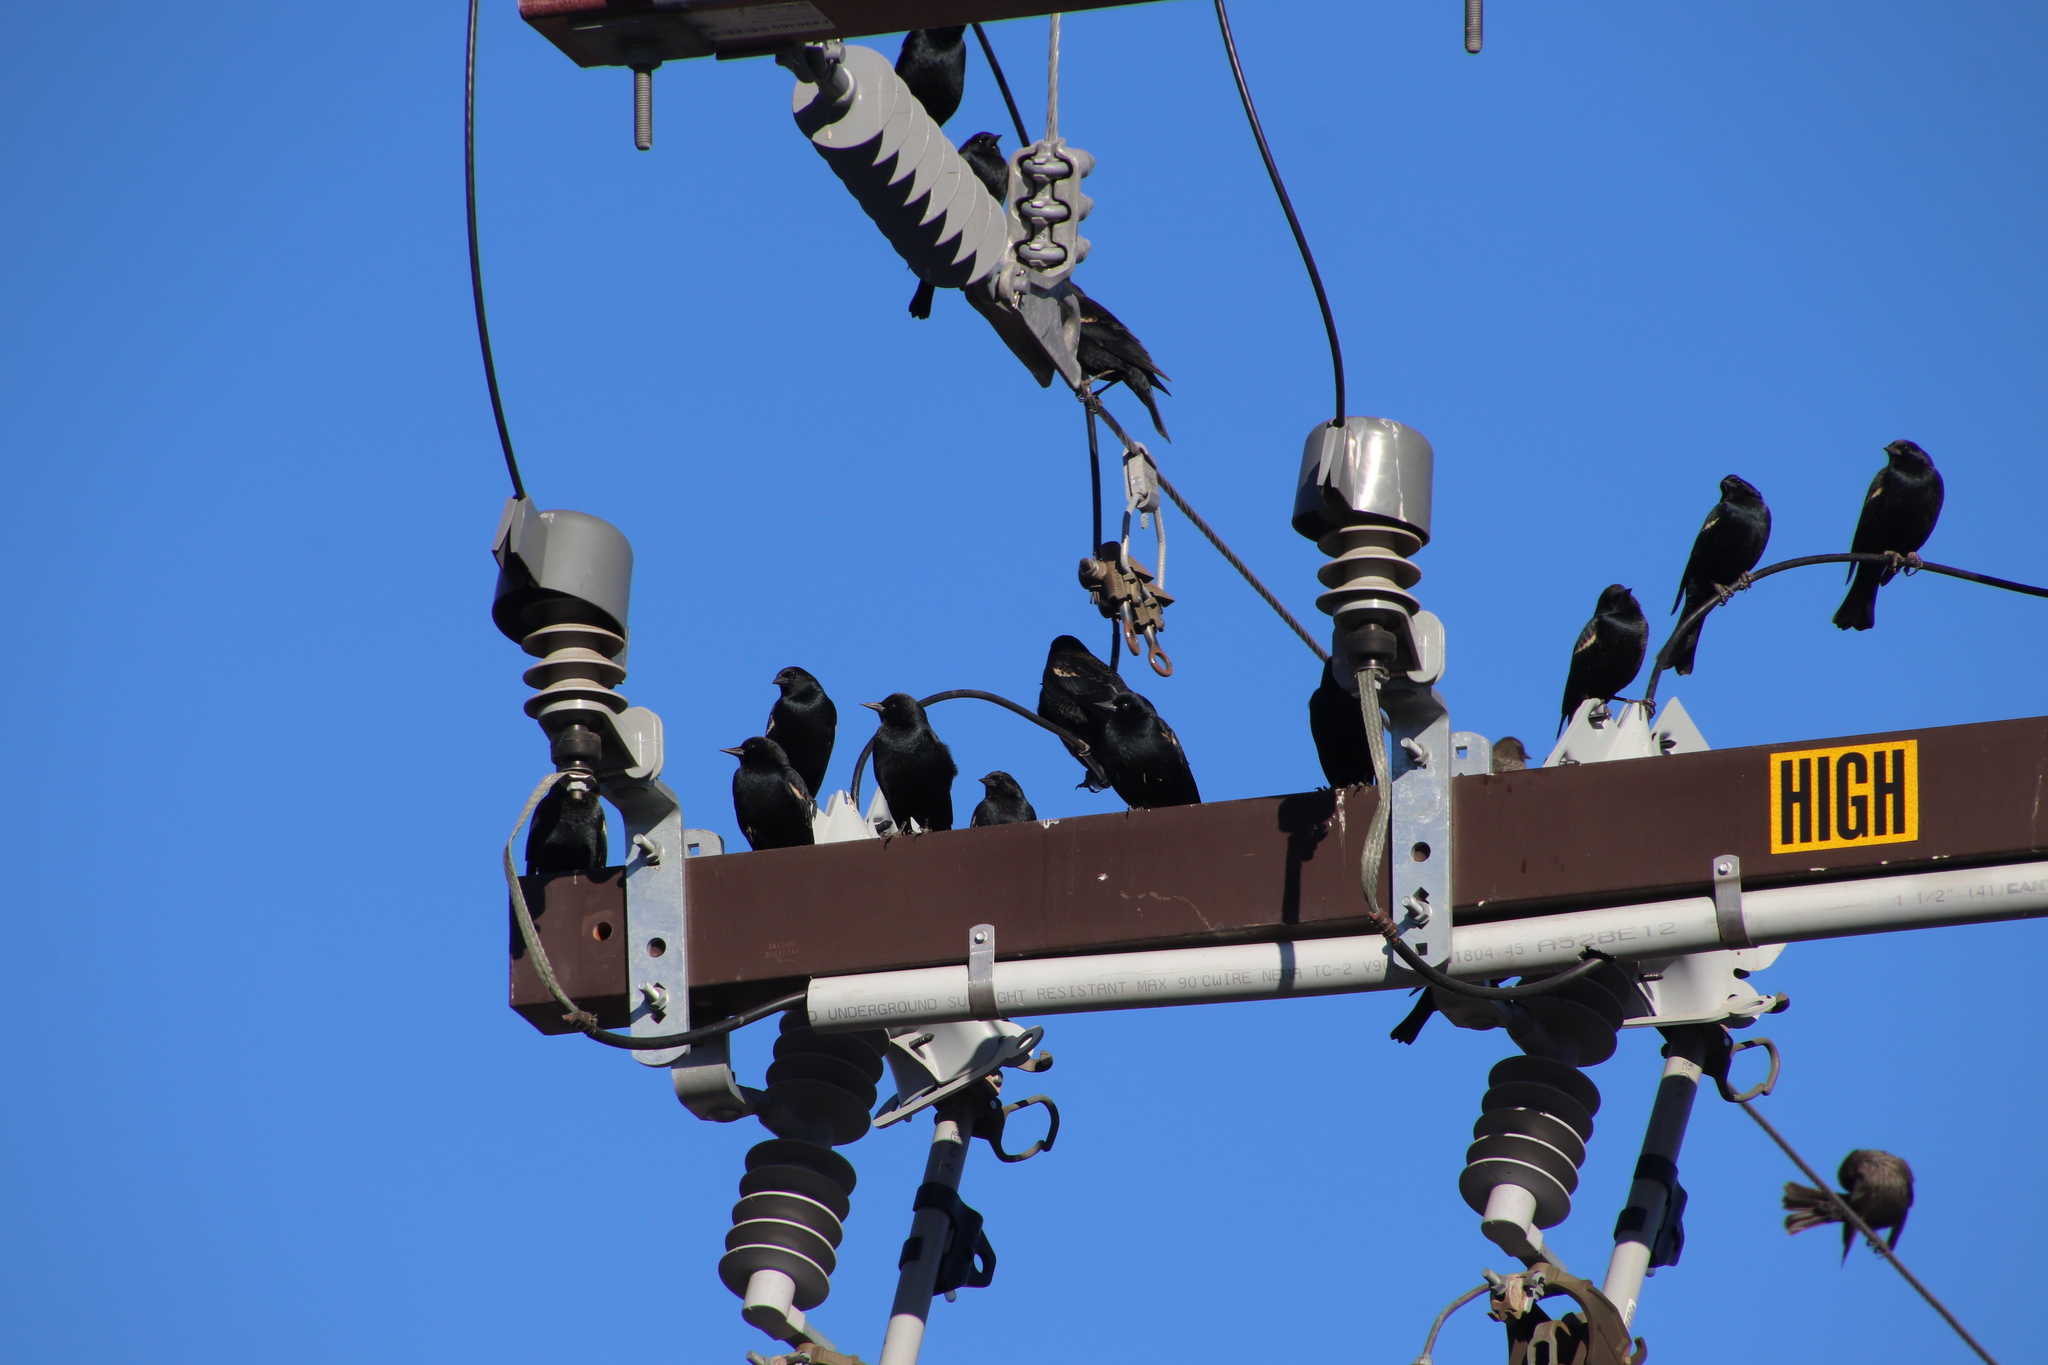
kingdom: Animalia
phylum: Chordata
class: Aves
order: Passeriformes
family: Icteridae
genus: Agelaius
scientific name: Agelaius tricolor
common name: Tricolored blackbird
